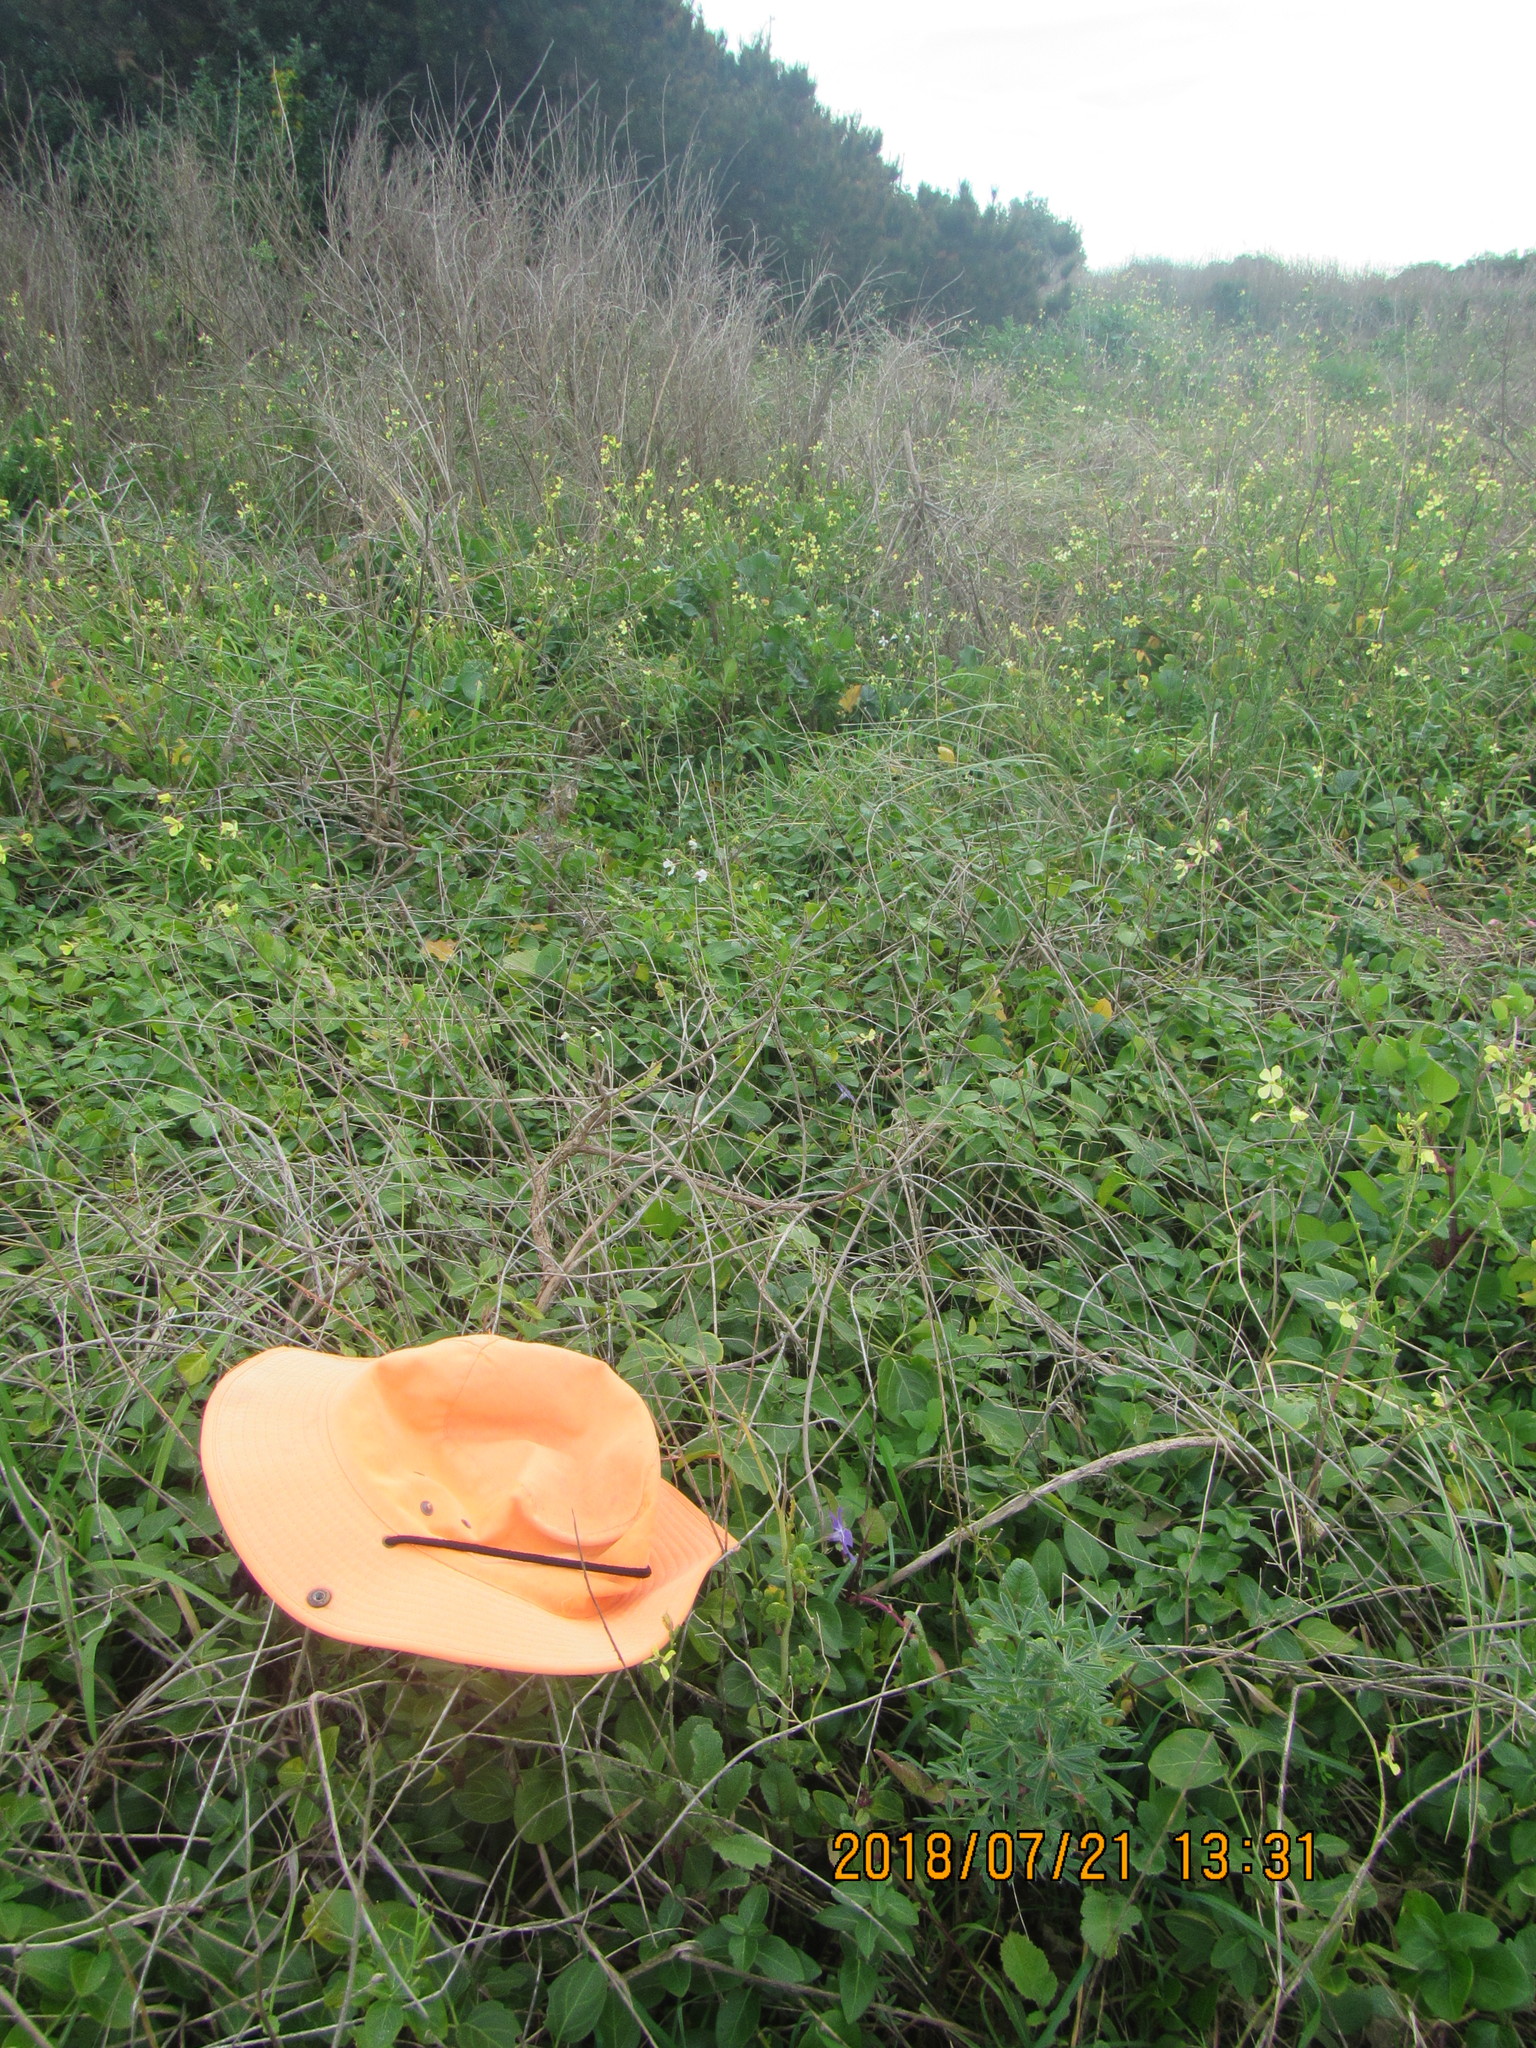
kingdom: Plantae
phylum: Tracheophyta
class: Magnoliopsida
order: Gentianales
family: Apocynaceae
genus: Vinca
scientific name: Vinca major
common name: Greater periwinkle
